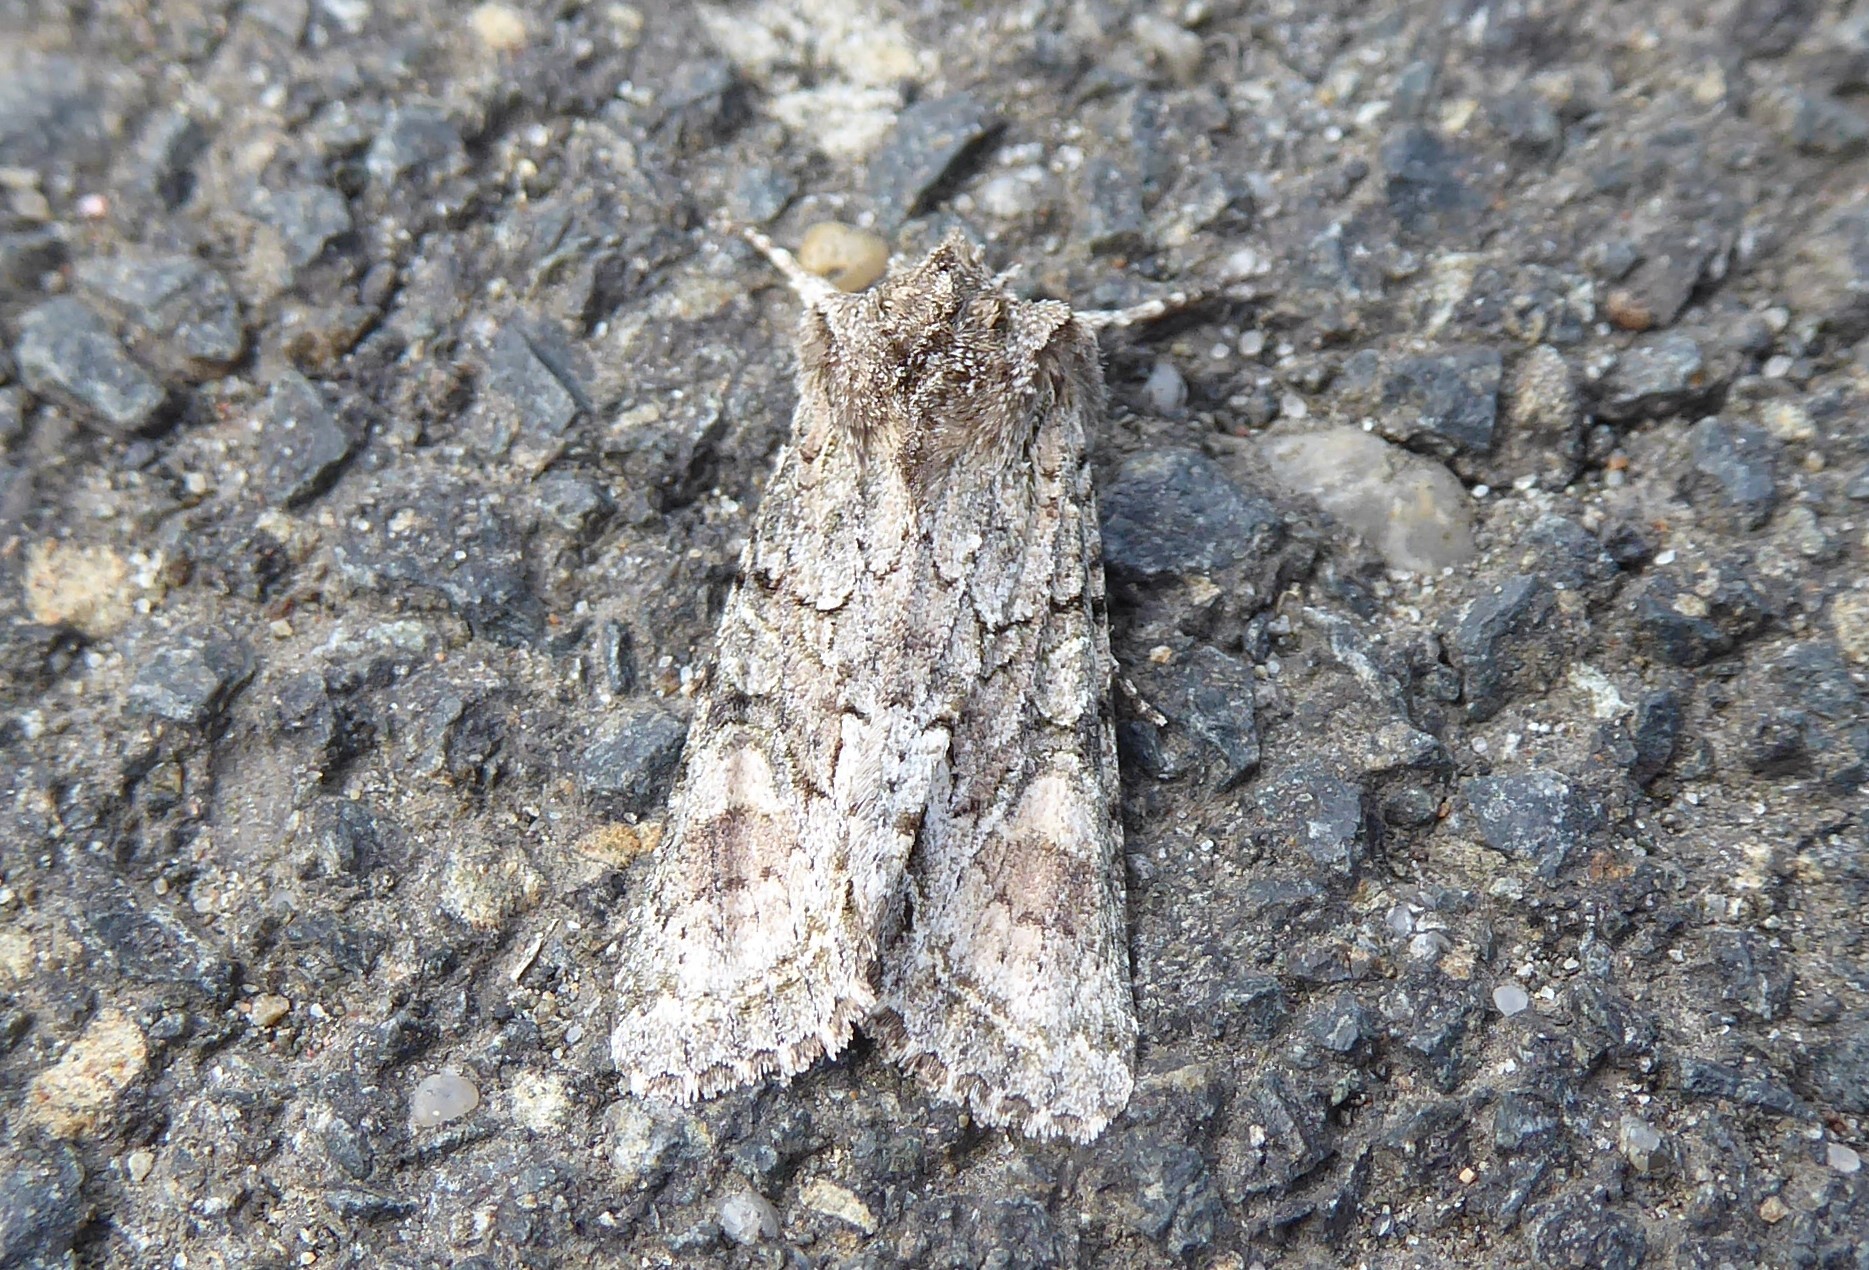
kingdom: Animalia
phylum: Arthropoda
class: Insecta
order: Lepidoptera
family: Noctuidae
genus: Ichneutica
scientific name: Ichneutica mutans
